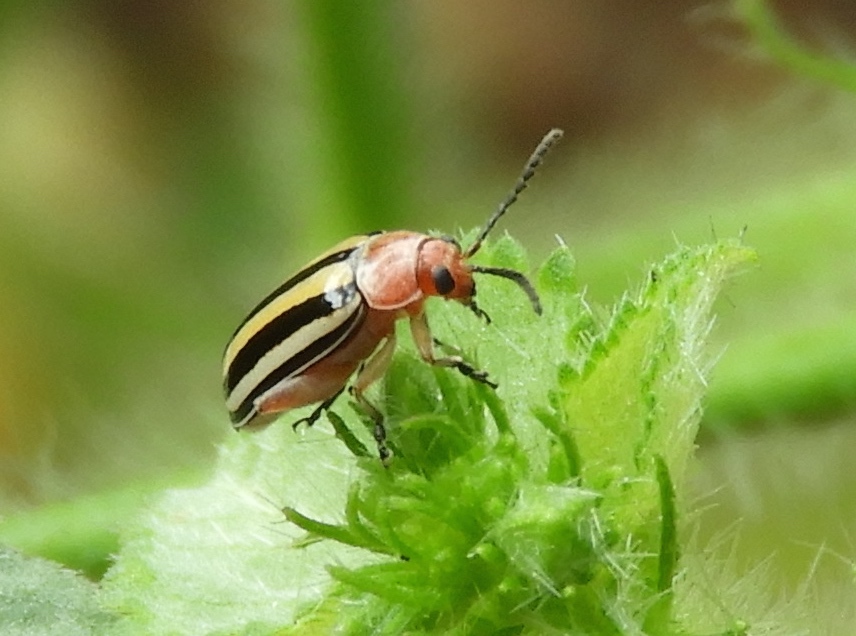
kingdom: Animalia
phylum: Arthropoda
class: Insecta
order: Coleoptera
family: Chrysomelidae
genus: Disonycha
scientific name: Disonycha
